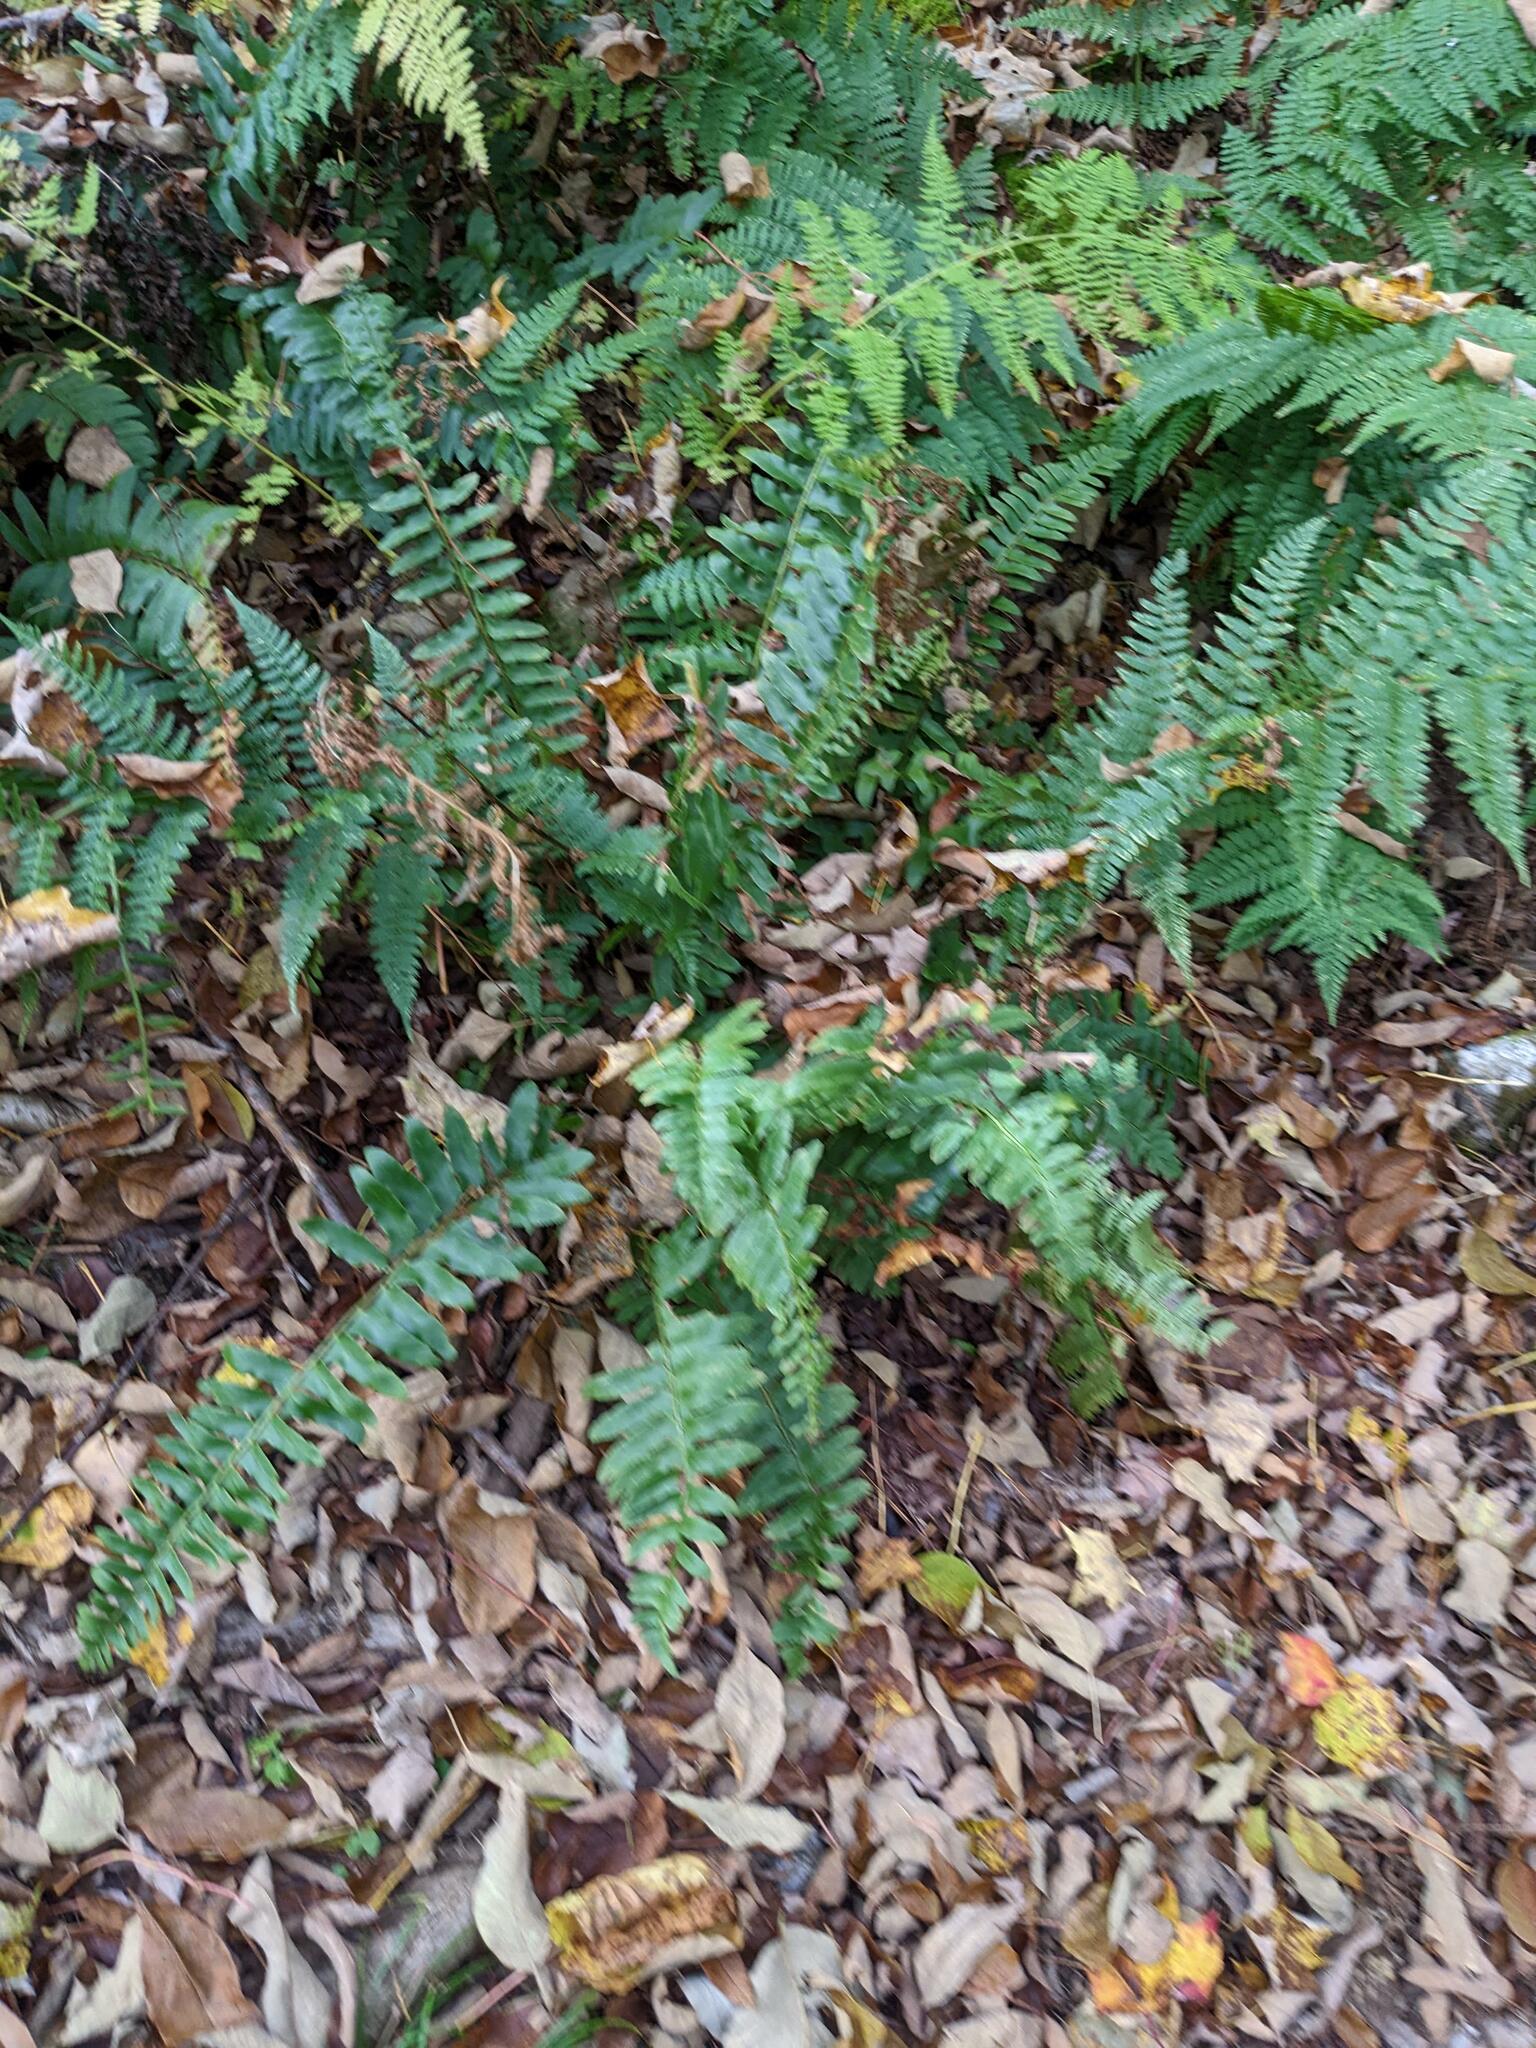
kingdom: Plantae
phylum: Tracheophyta
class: Polypodiopsida
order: Polypodiales
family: Dryopteridaceae
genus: Polystichum
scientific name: Polystichum acrostichoides
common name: Christmas fern
